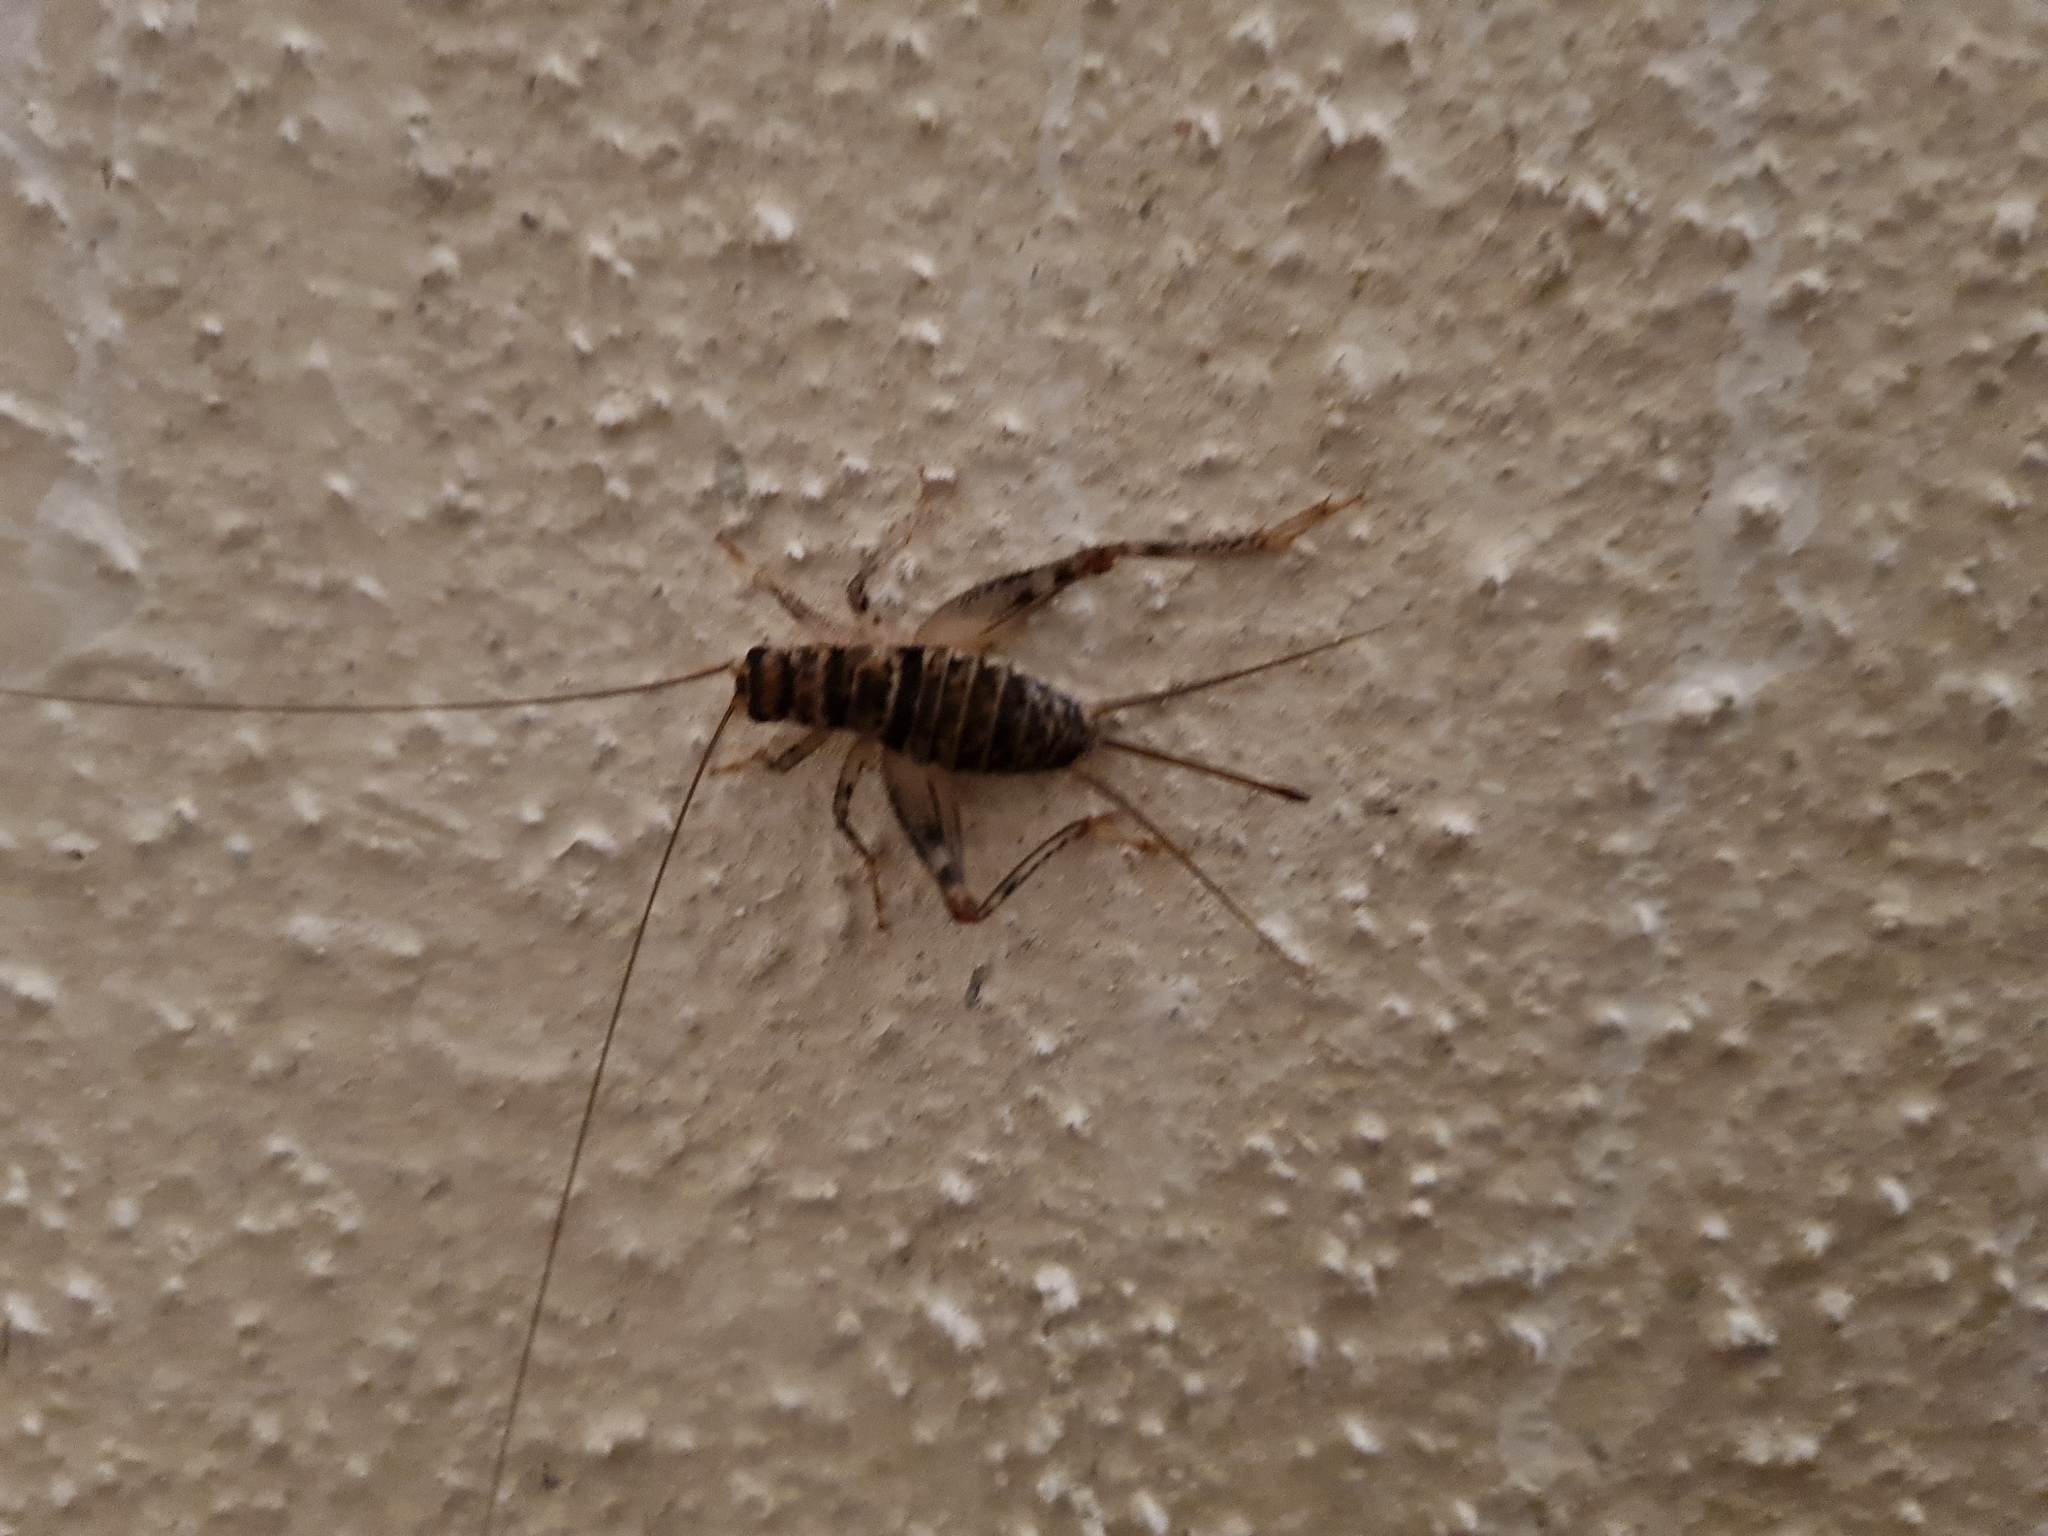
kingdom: Animalia
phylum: Arthropoda
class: Insecta
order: Orthoptera
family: Gryllidae
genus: Gryllodes
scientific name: Gryllodes sigillatus
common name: Tropical house cricket
